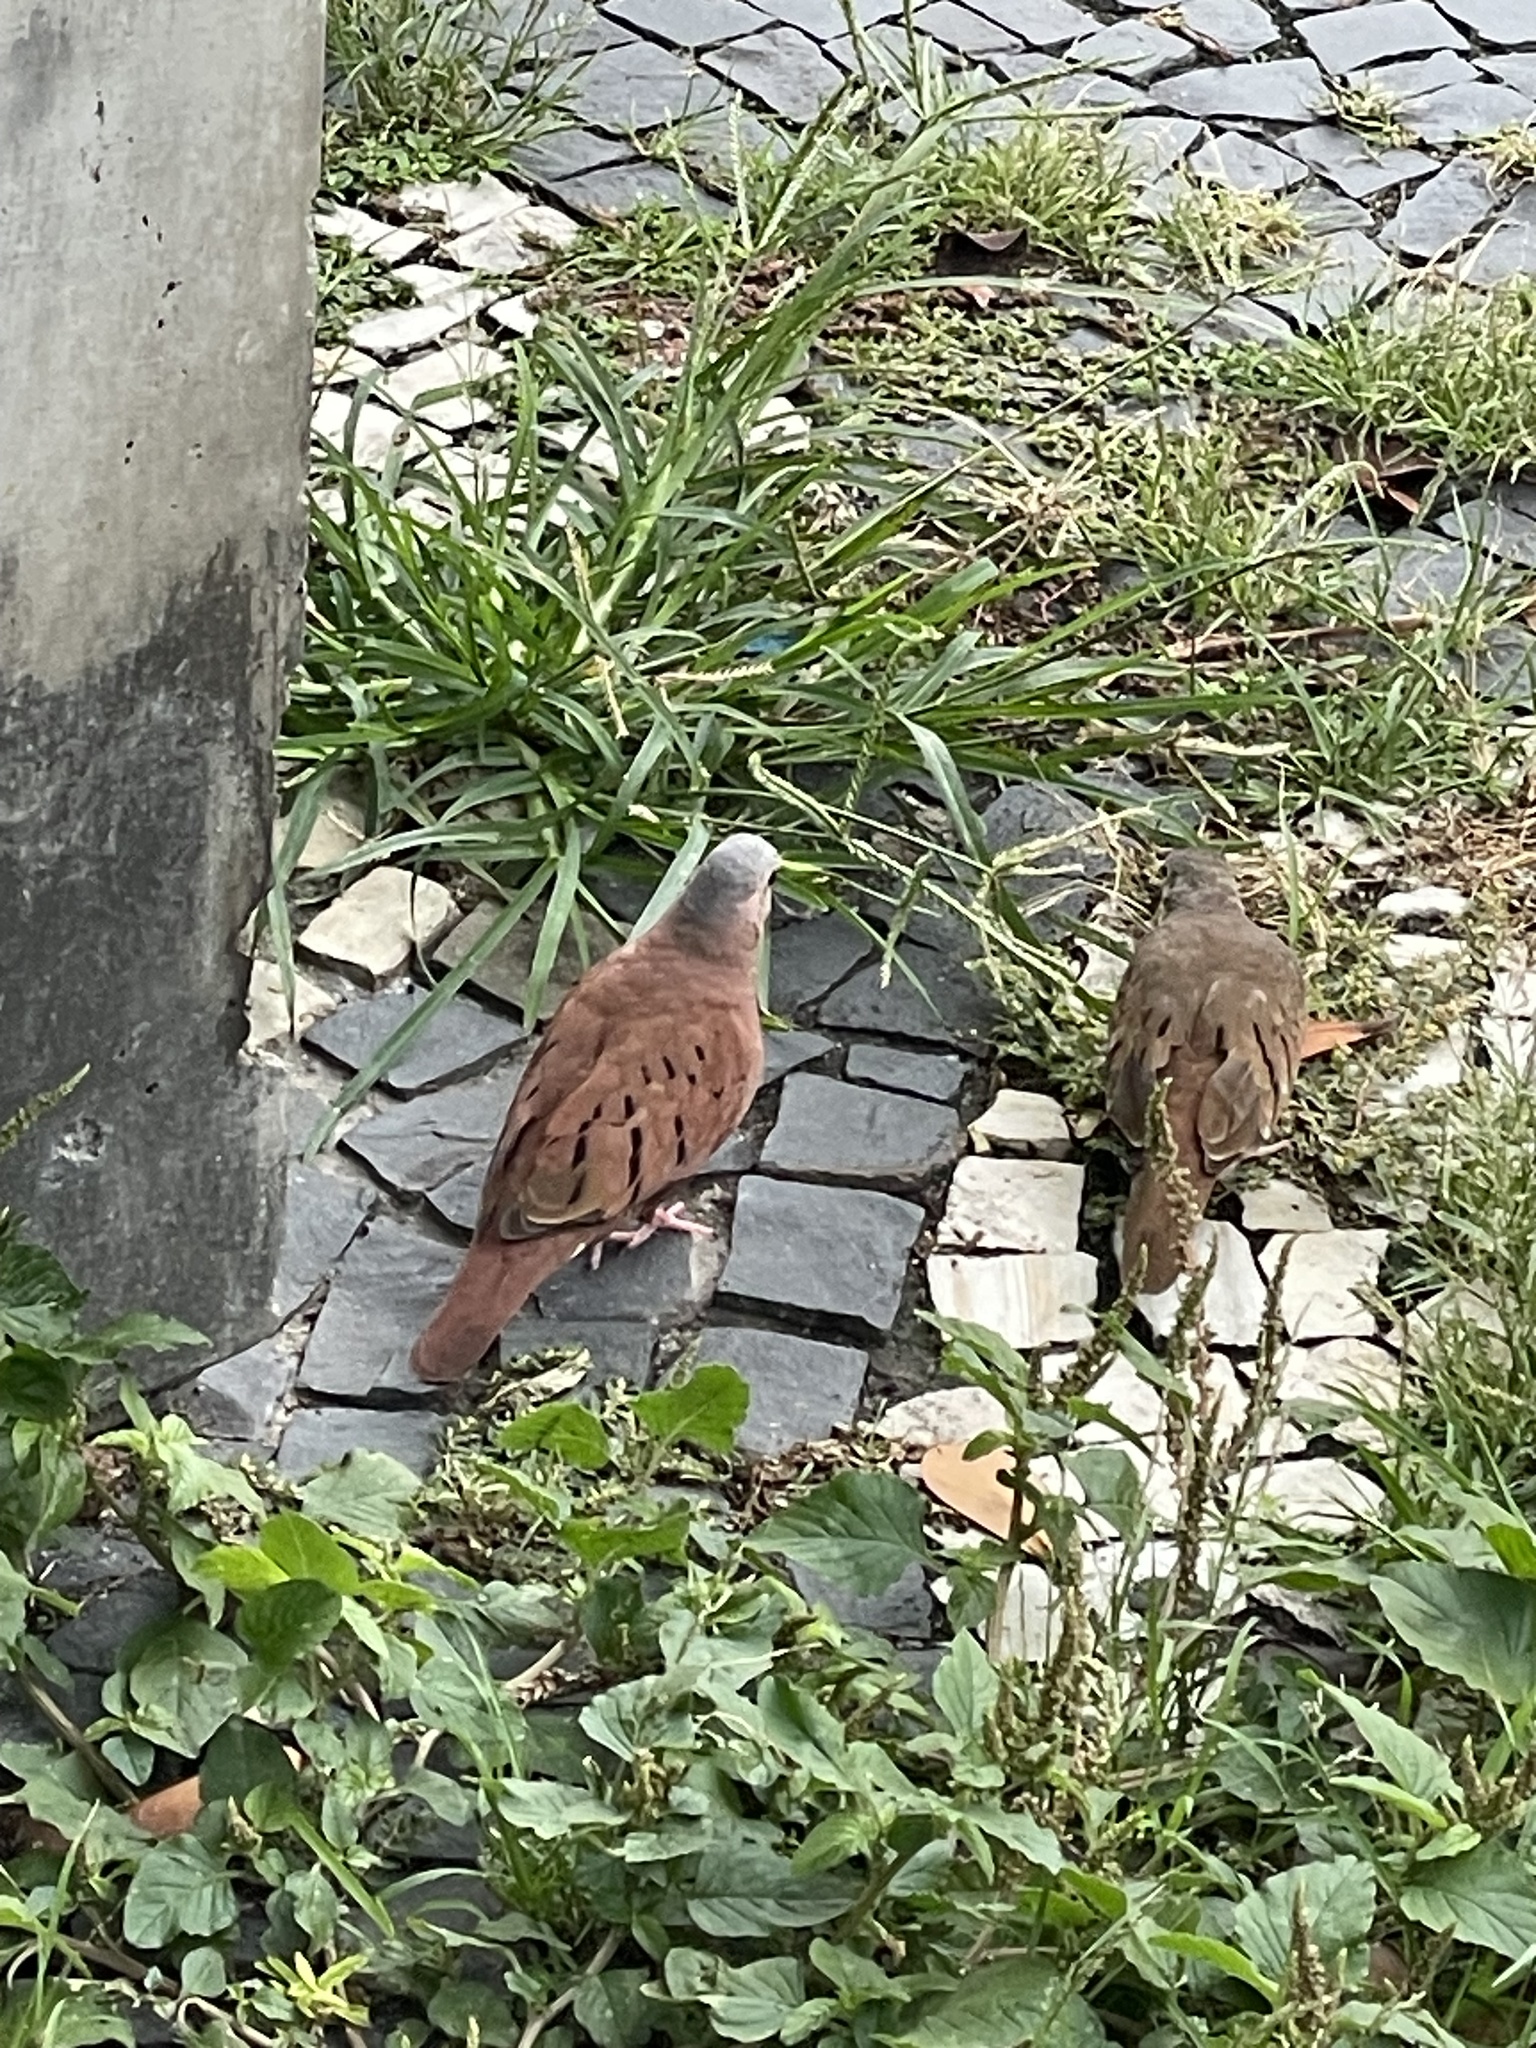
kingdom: Animalia
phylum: Chordata
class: Aves
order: Columbiformes
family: Columbidae
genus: Columbina
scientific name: Columbina talpacoti
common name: Ruddy ground dove
